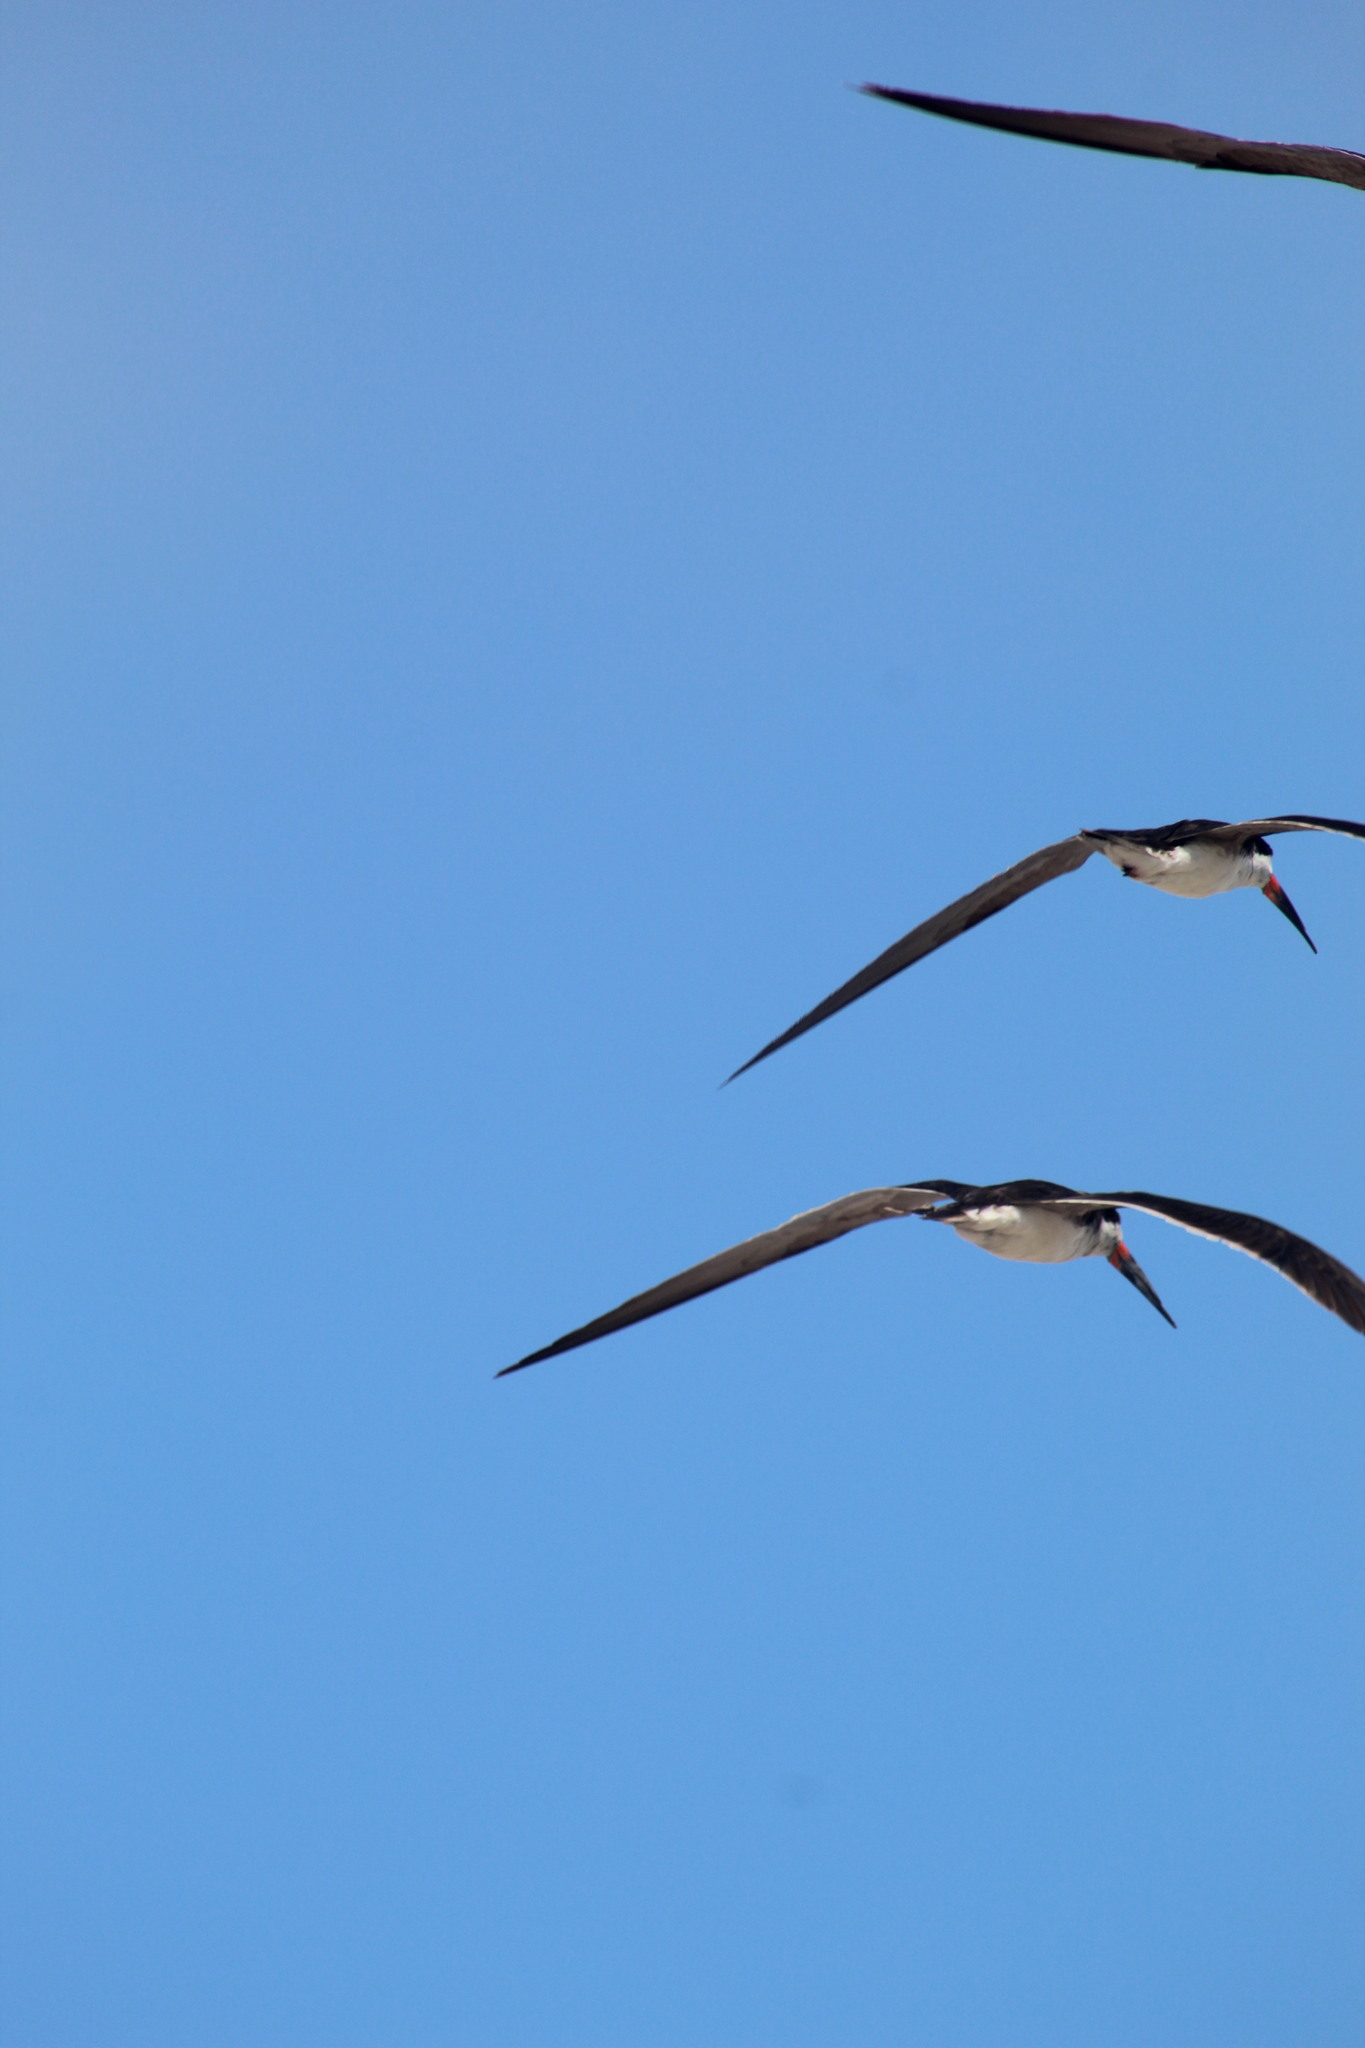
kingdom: Animalia
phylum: Chordata
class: Aves
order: Charadriiformes
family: Laridae
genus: Rynchops
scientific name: Rynchops niger
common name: Black skimmer
